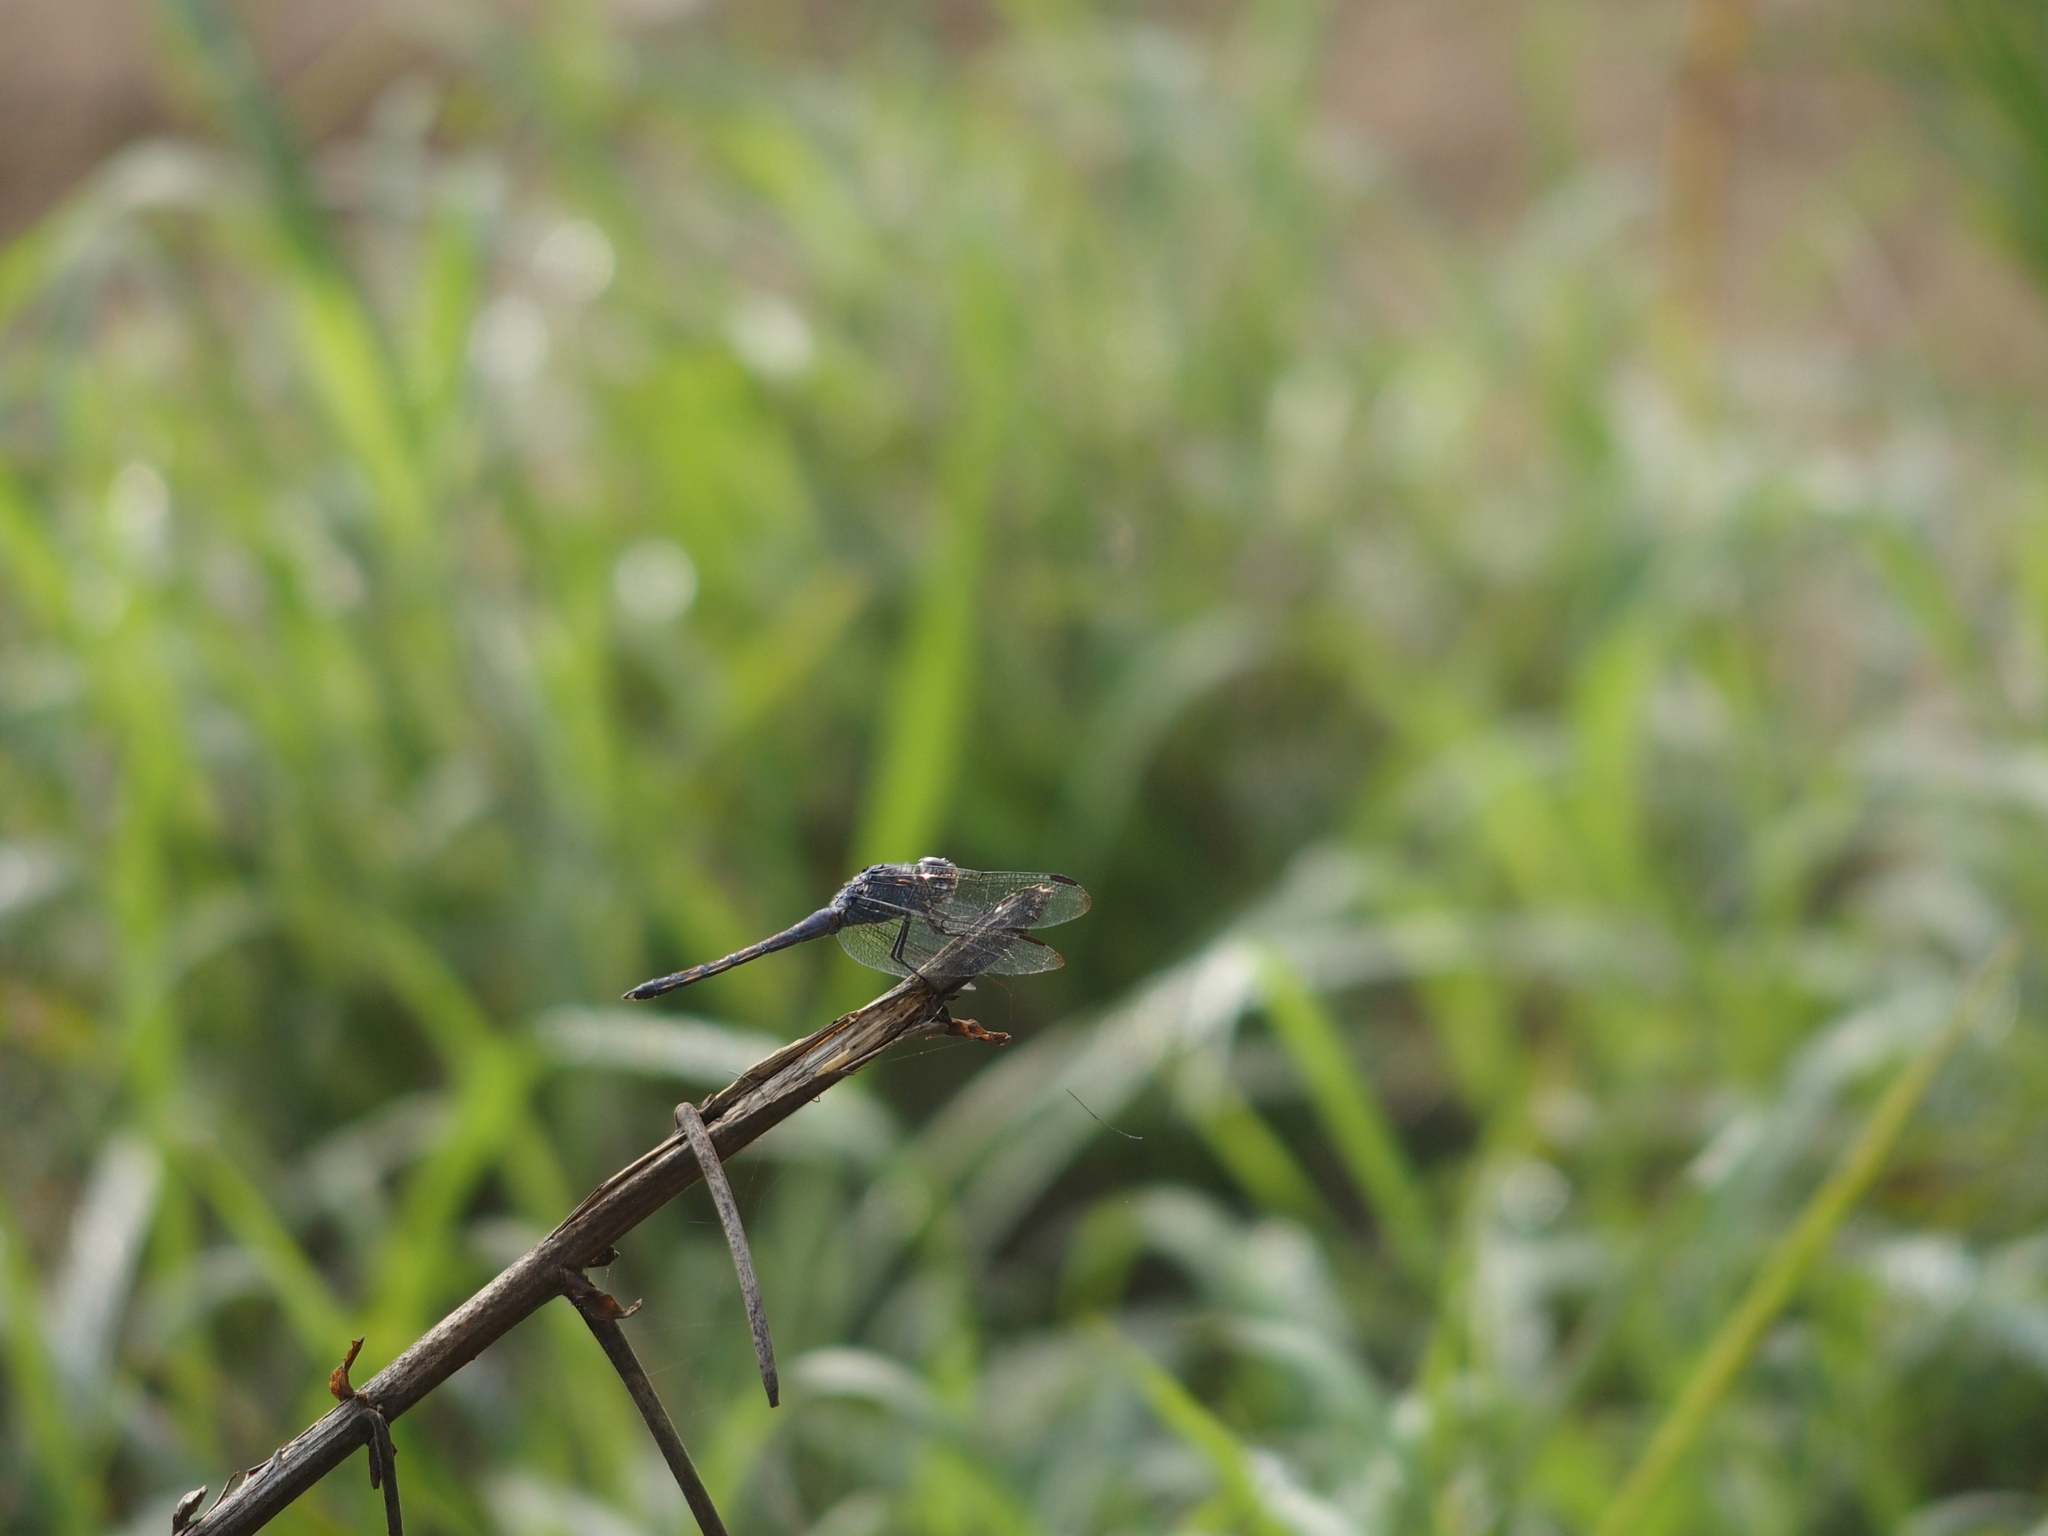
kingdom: Animalia
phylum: Arthropoda
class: Insecta
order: Odonata
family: Libellulidae
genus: Potamarcha
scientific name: Potamarcha congener
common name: Blue chaser
